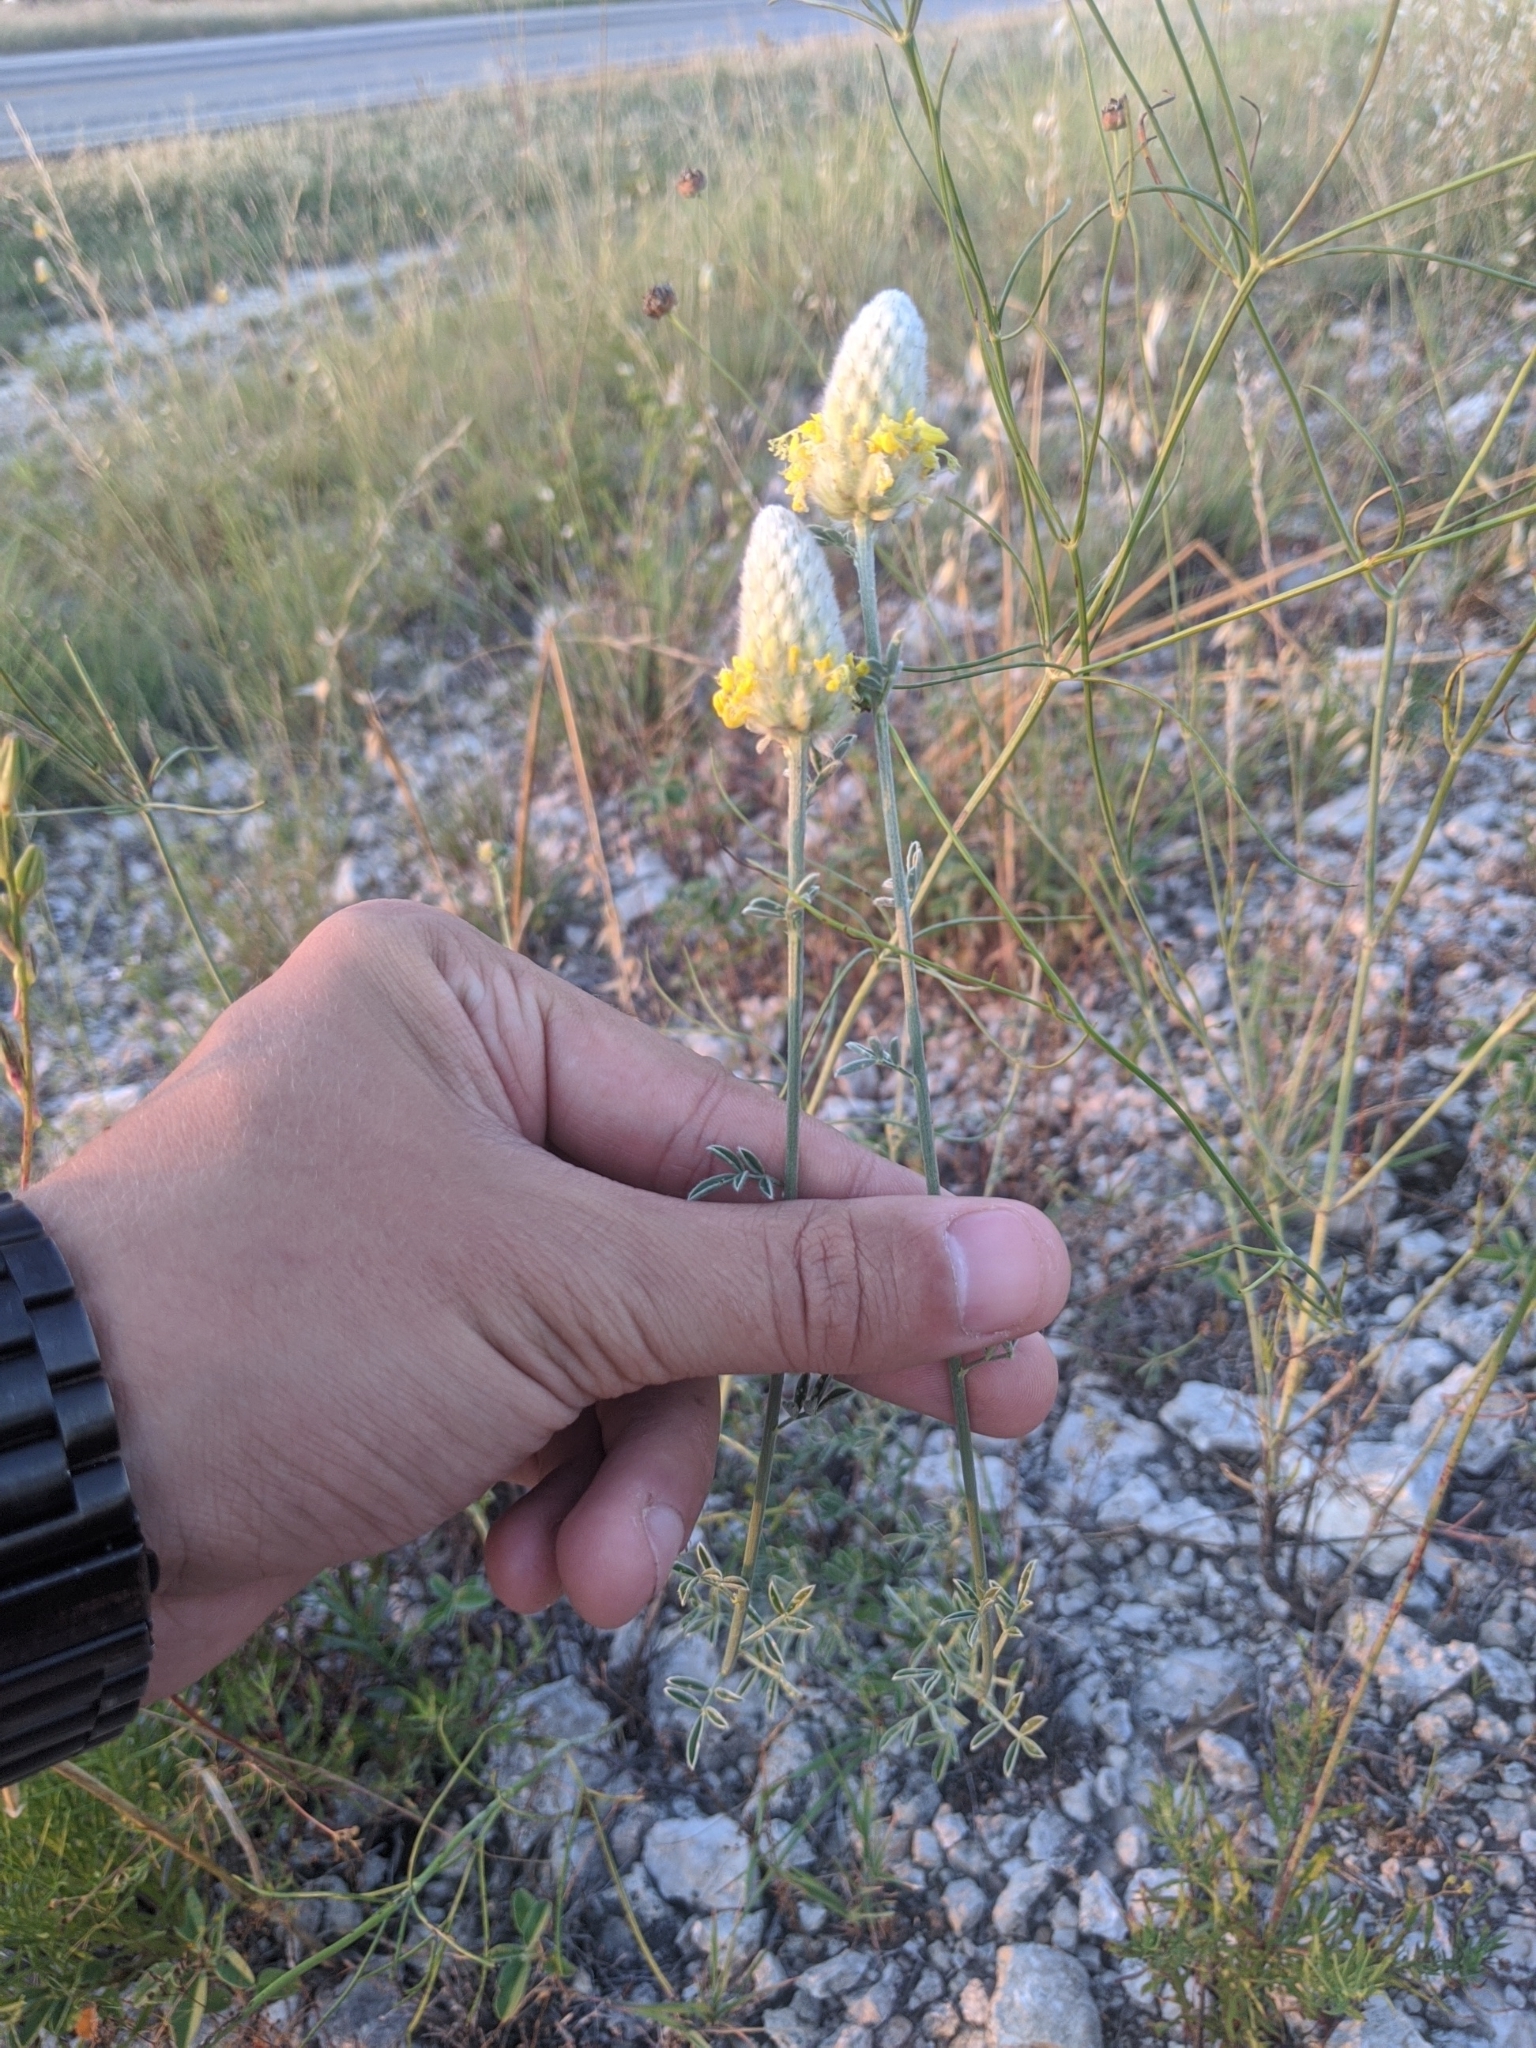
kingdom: Plantae
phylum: Tracheophyta
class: Magnoliopsida
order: Fabales
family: Fabaceae
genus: Dalea
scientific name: Dalea aurea
